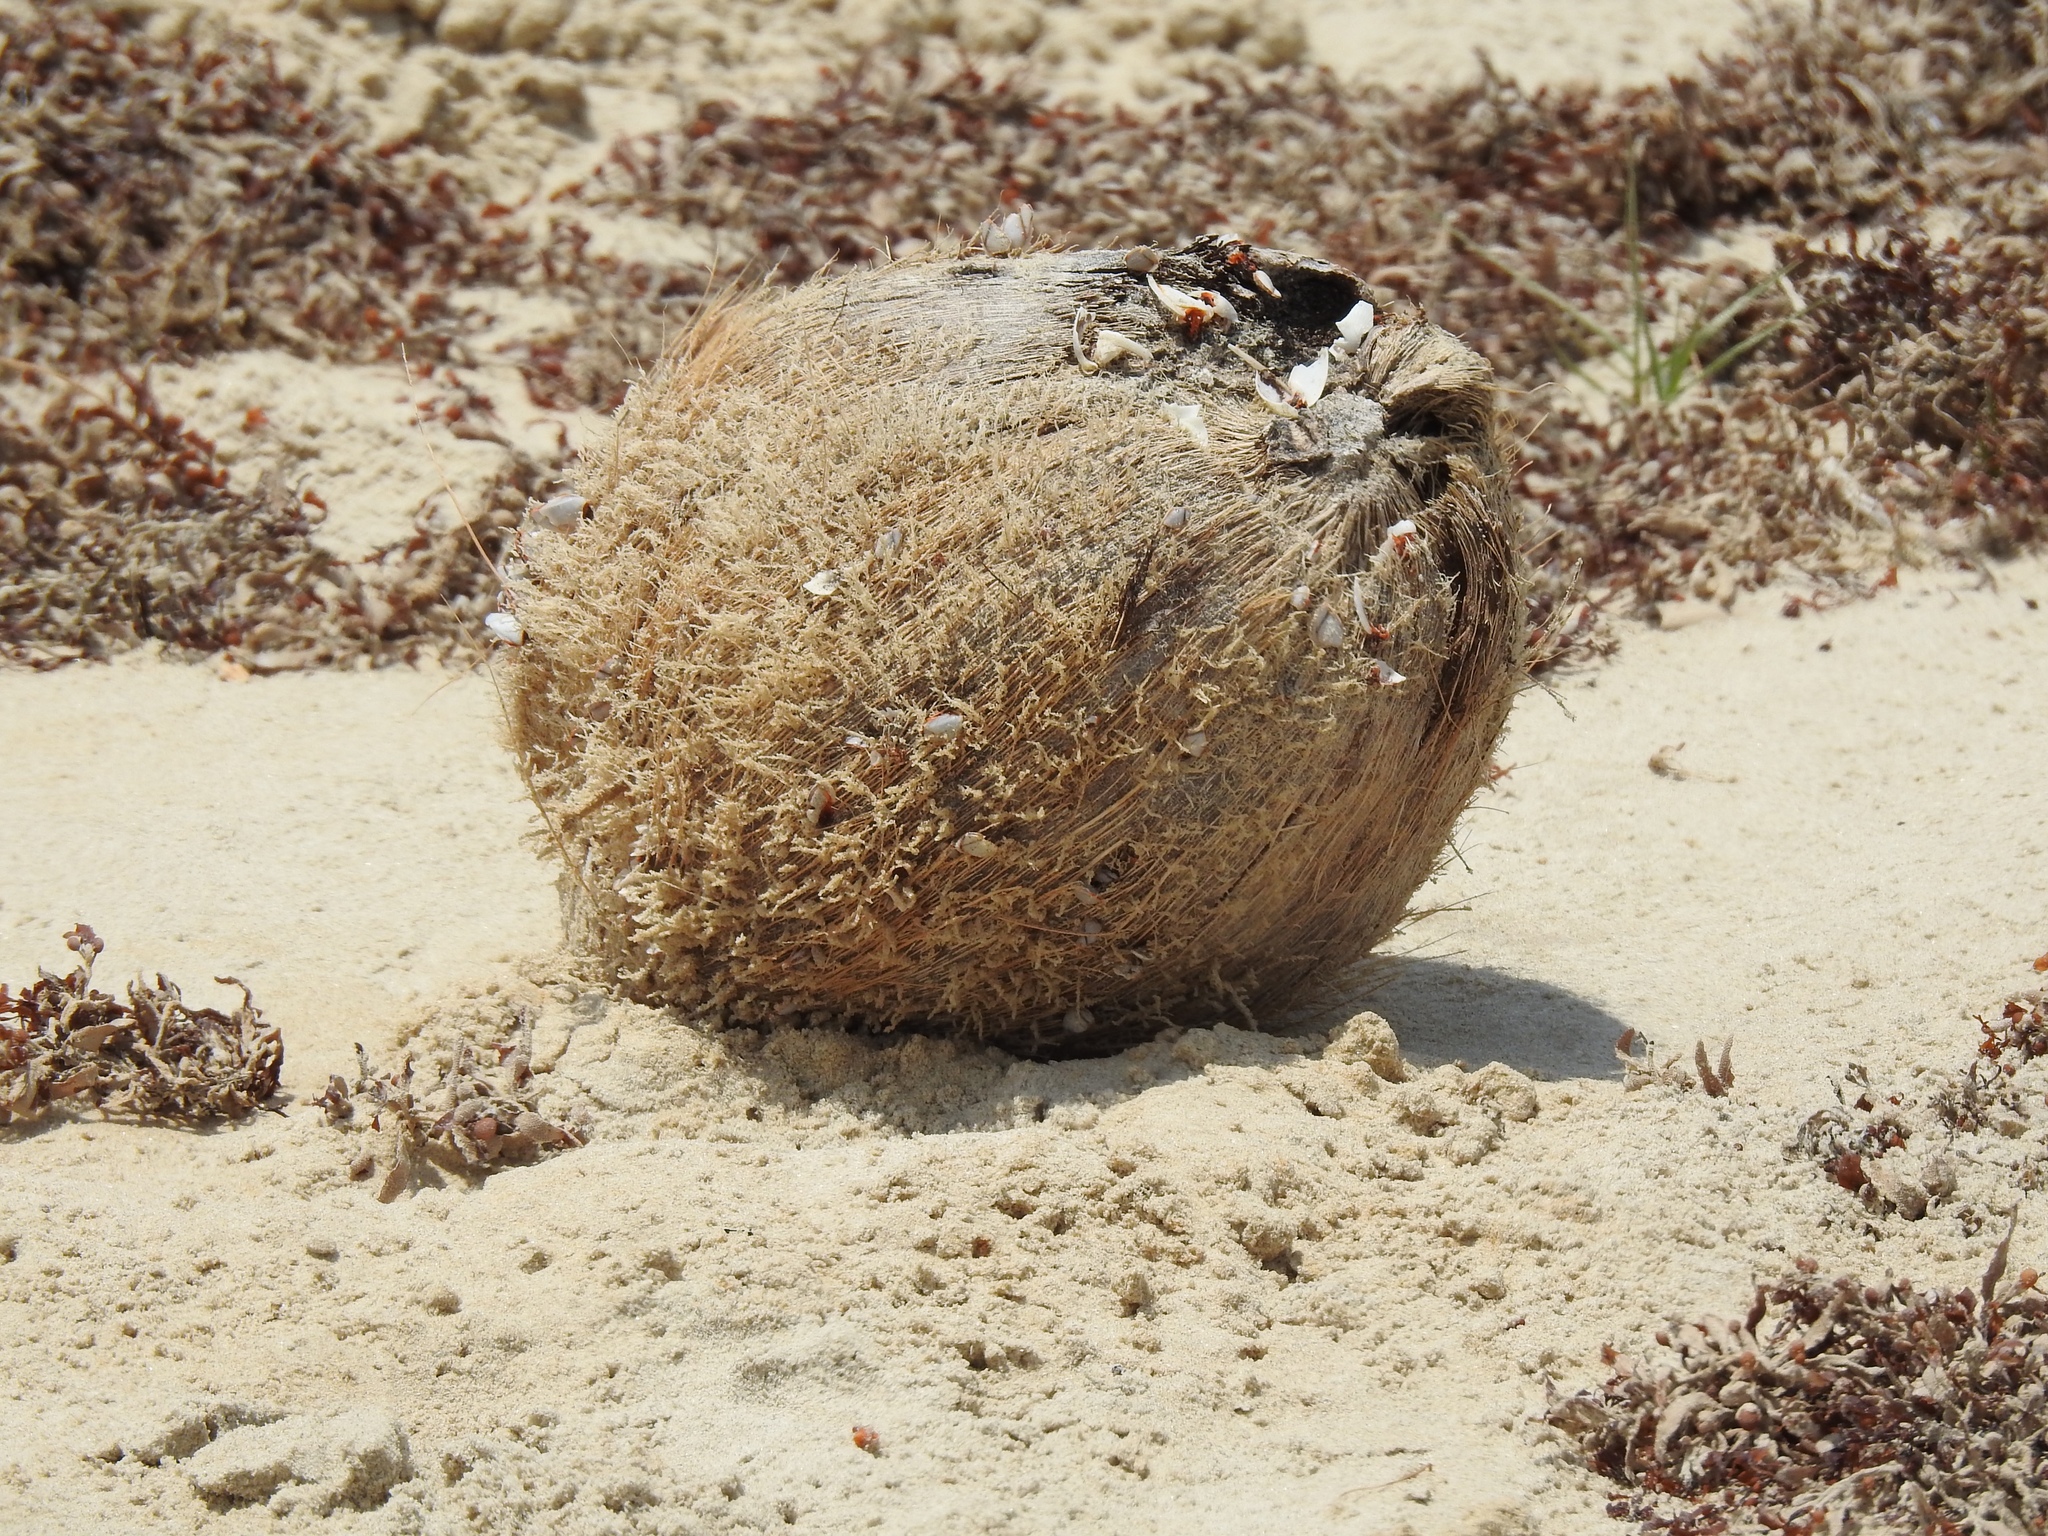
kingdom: Plantae
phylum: Tracheophyta
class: Liliopsida
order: Arecales
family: Arecaceae
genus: Cocos
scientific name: Cocos nucifera
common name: Coconut palm
